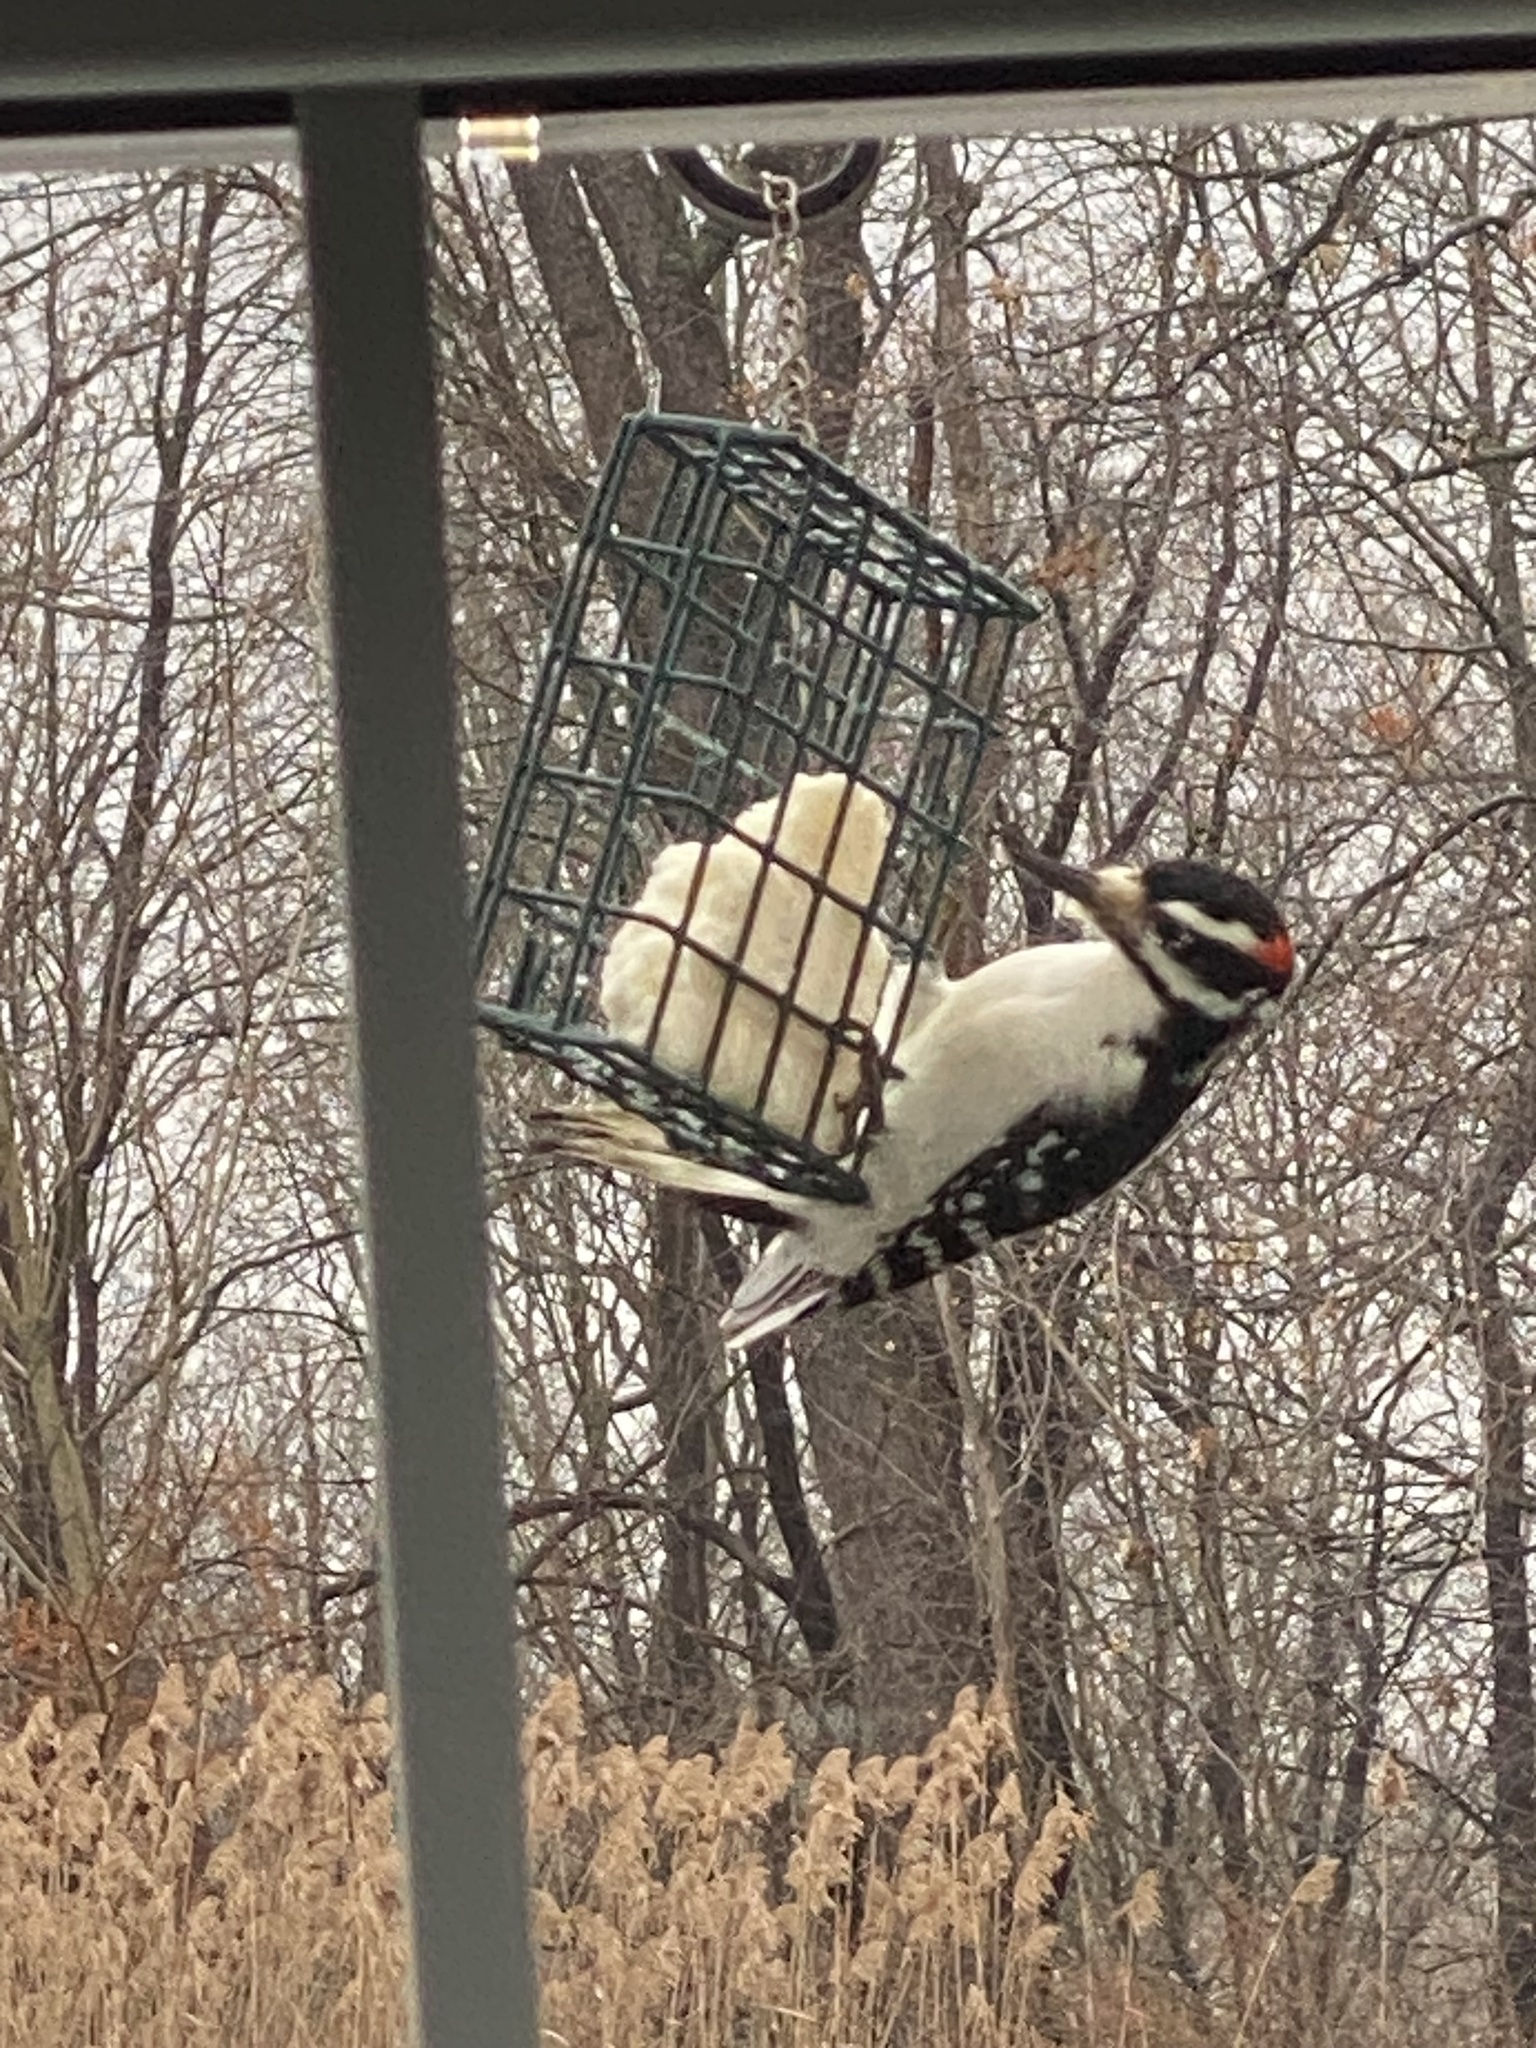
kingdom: Animalia
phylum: Chordata
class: Aves
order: Piciformes
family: Picidae
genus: Leuconotopicus
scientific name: Leuconotopicus villosus
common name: Hairy woodpecker
